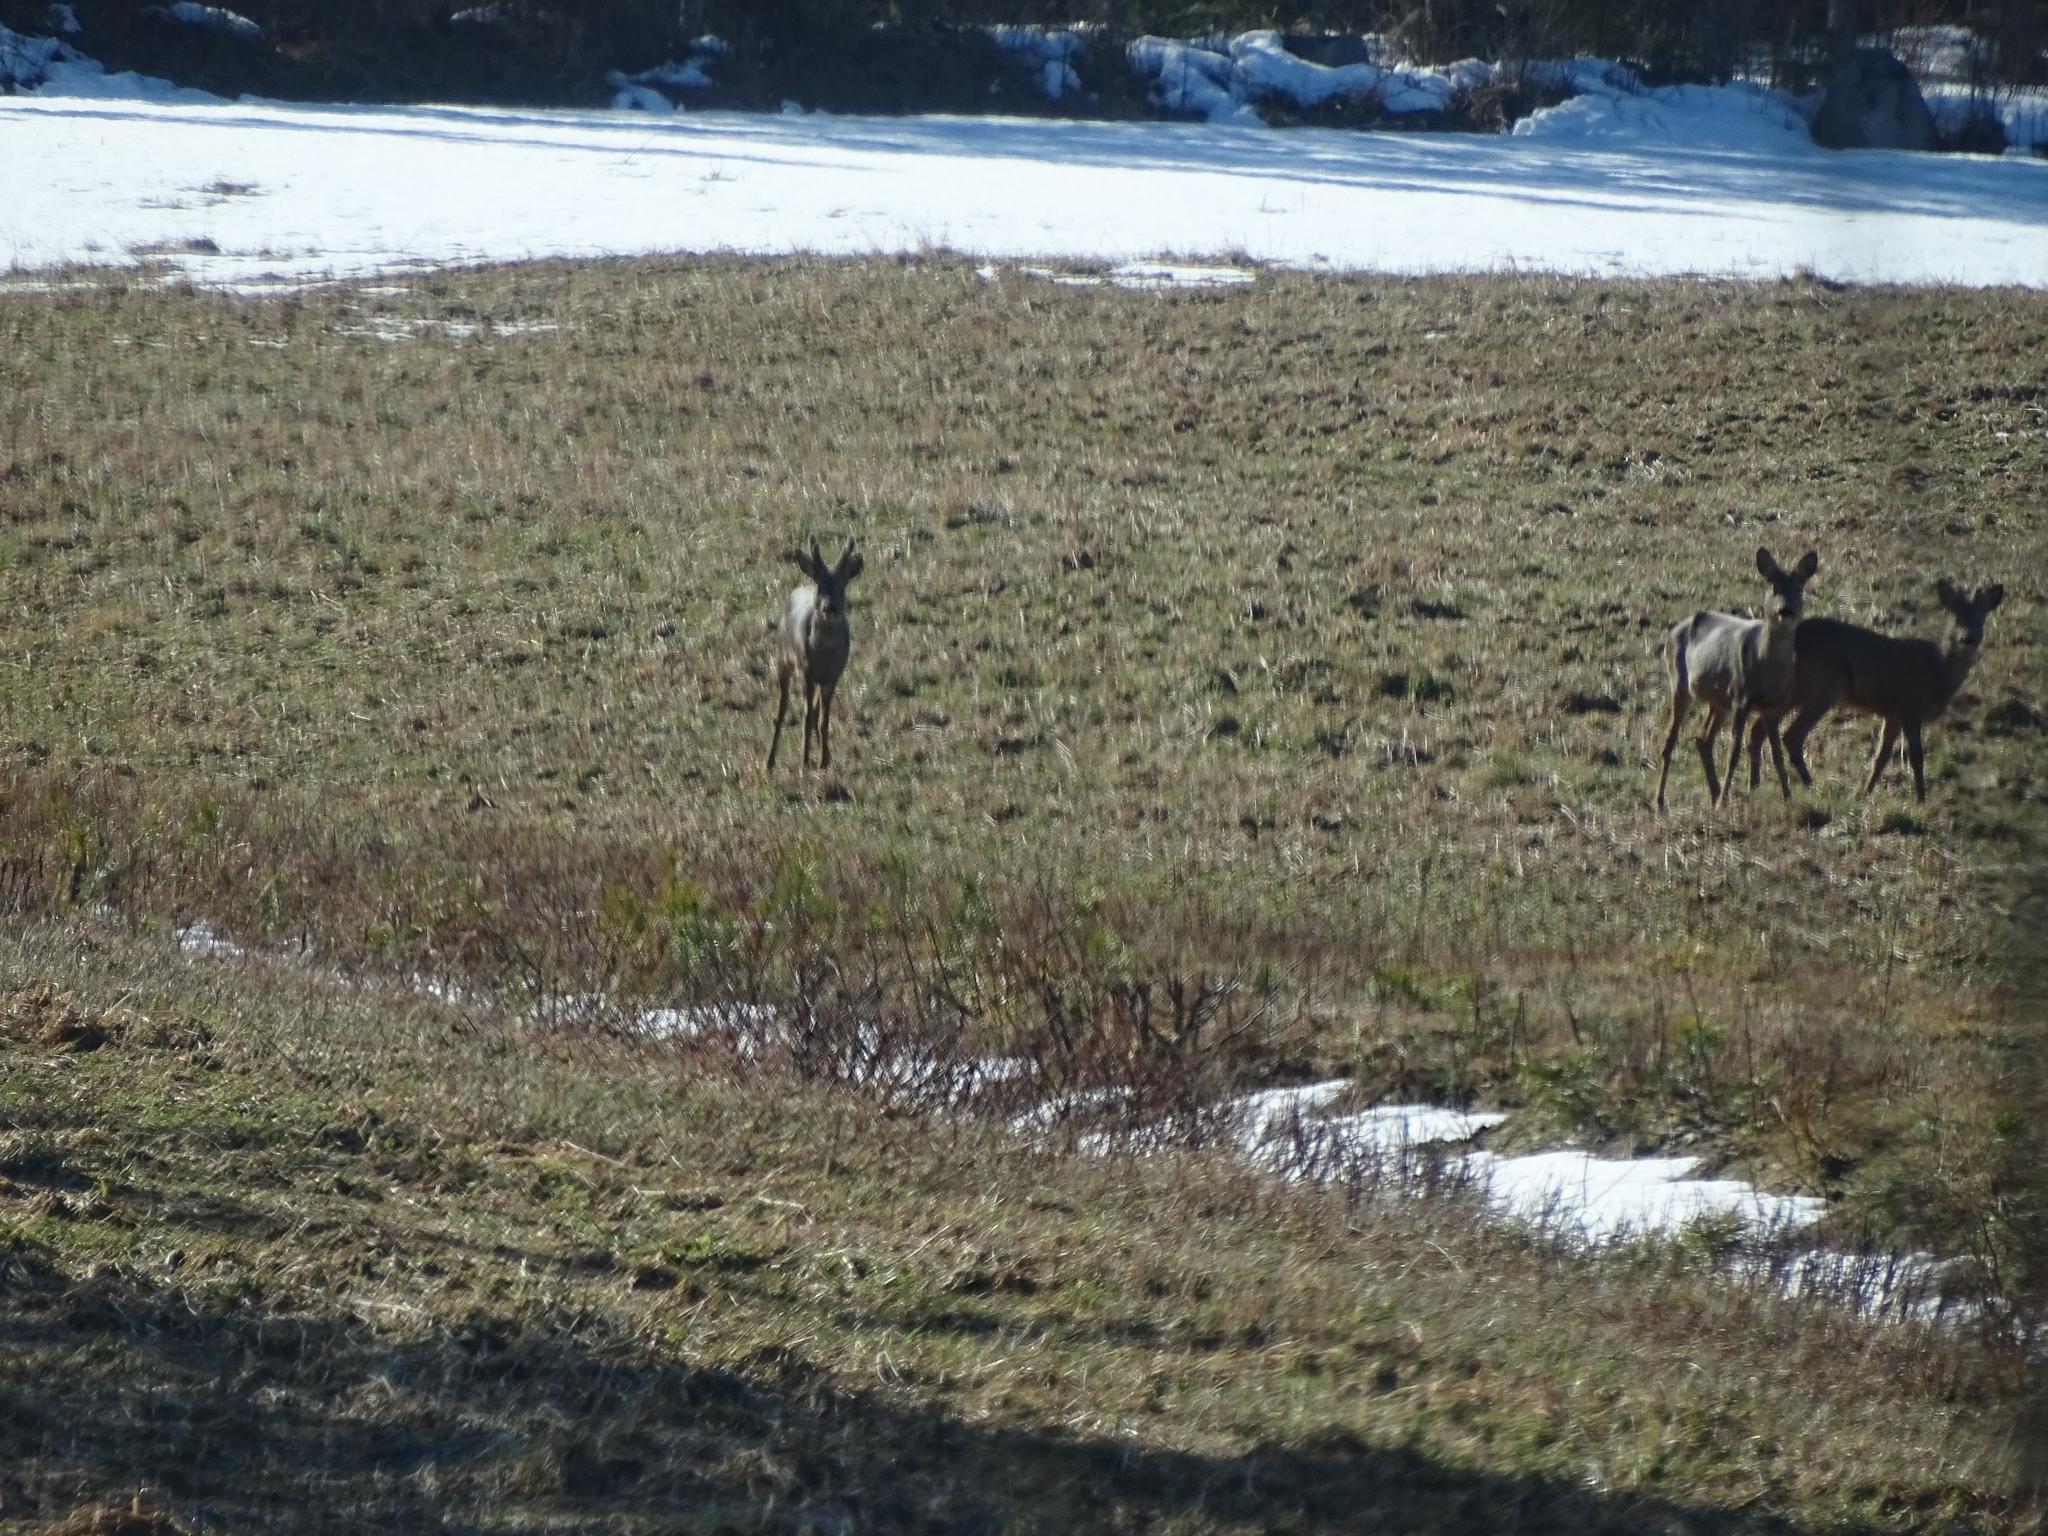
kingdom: Animalia
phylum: Chordata
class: Mammalia
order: Artiodactyla
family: Cervidae
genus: Capreolus
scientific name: Capreolus capreolus
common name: Western roe deer
